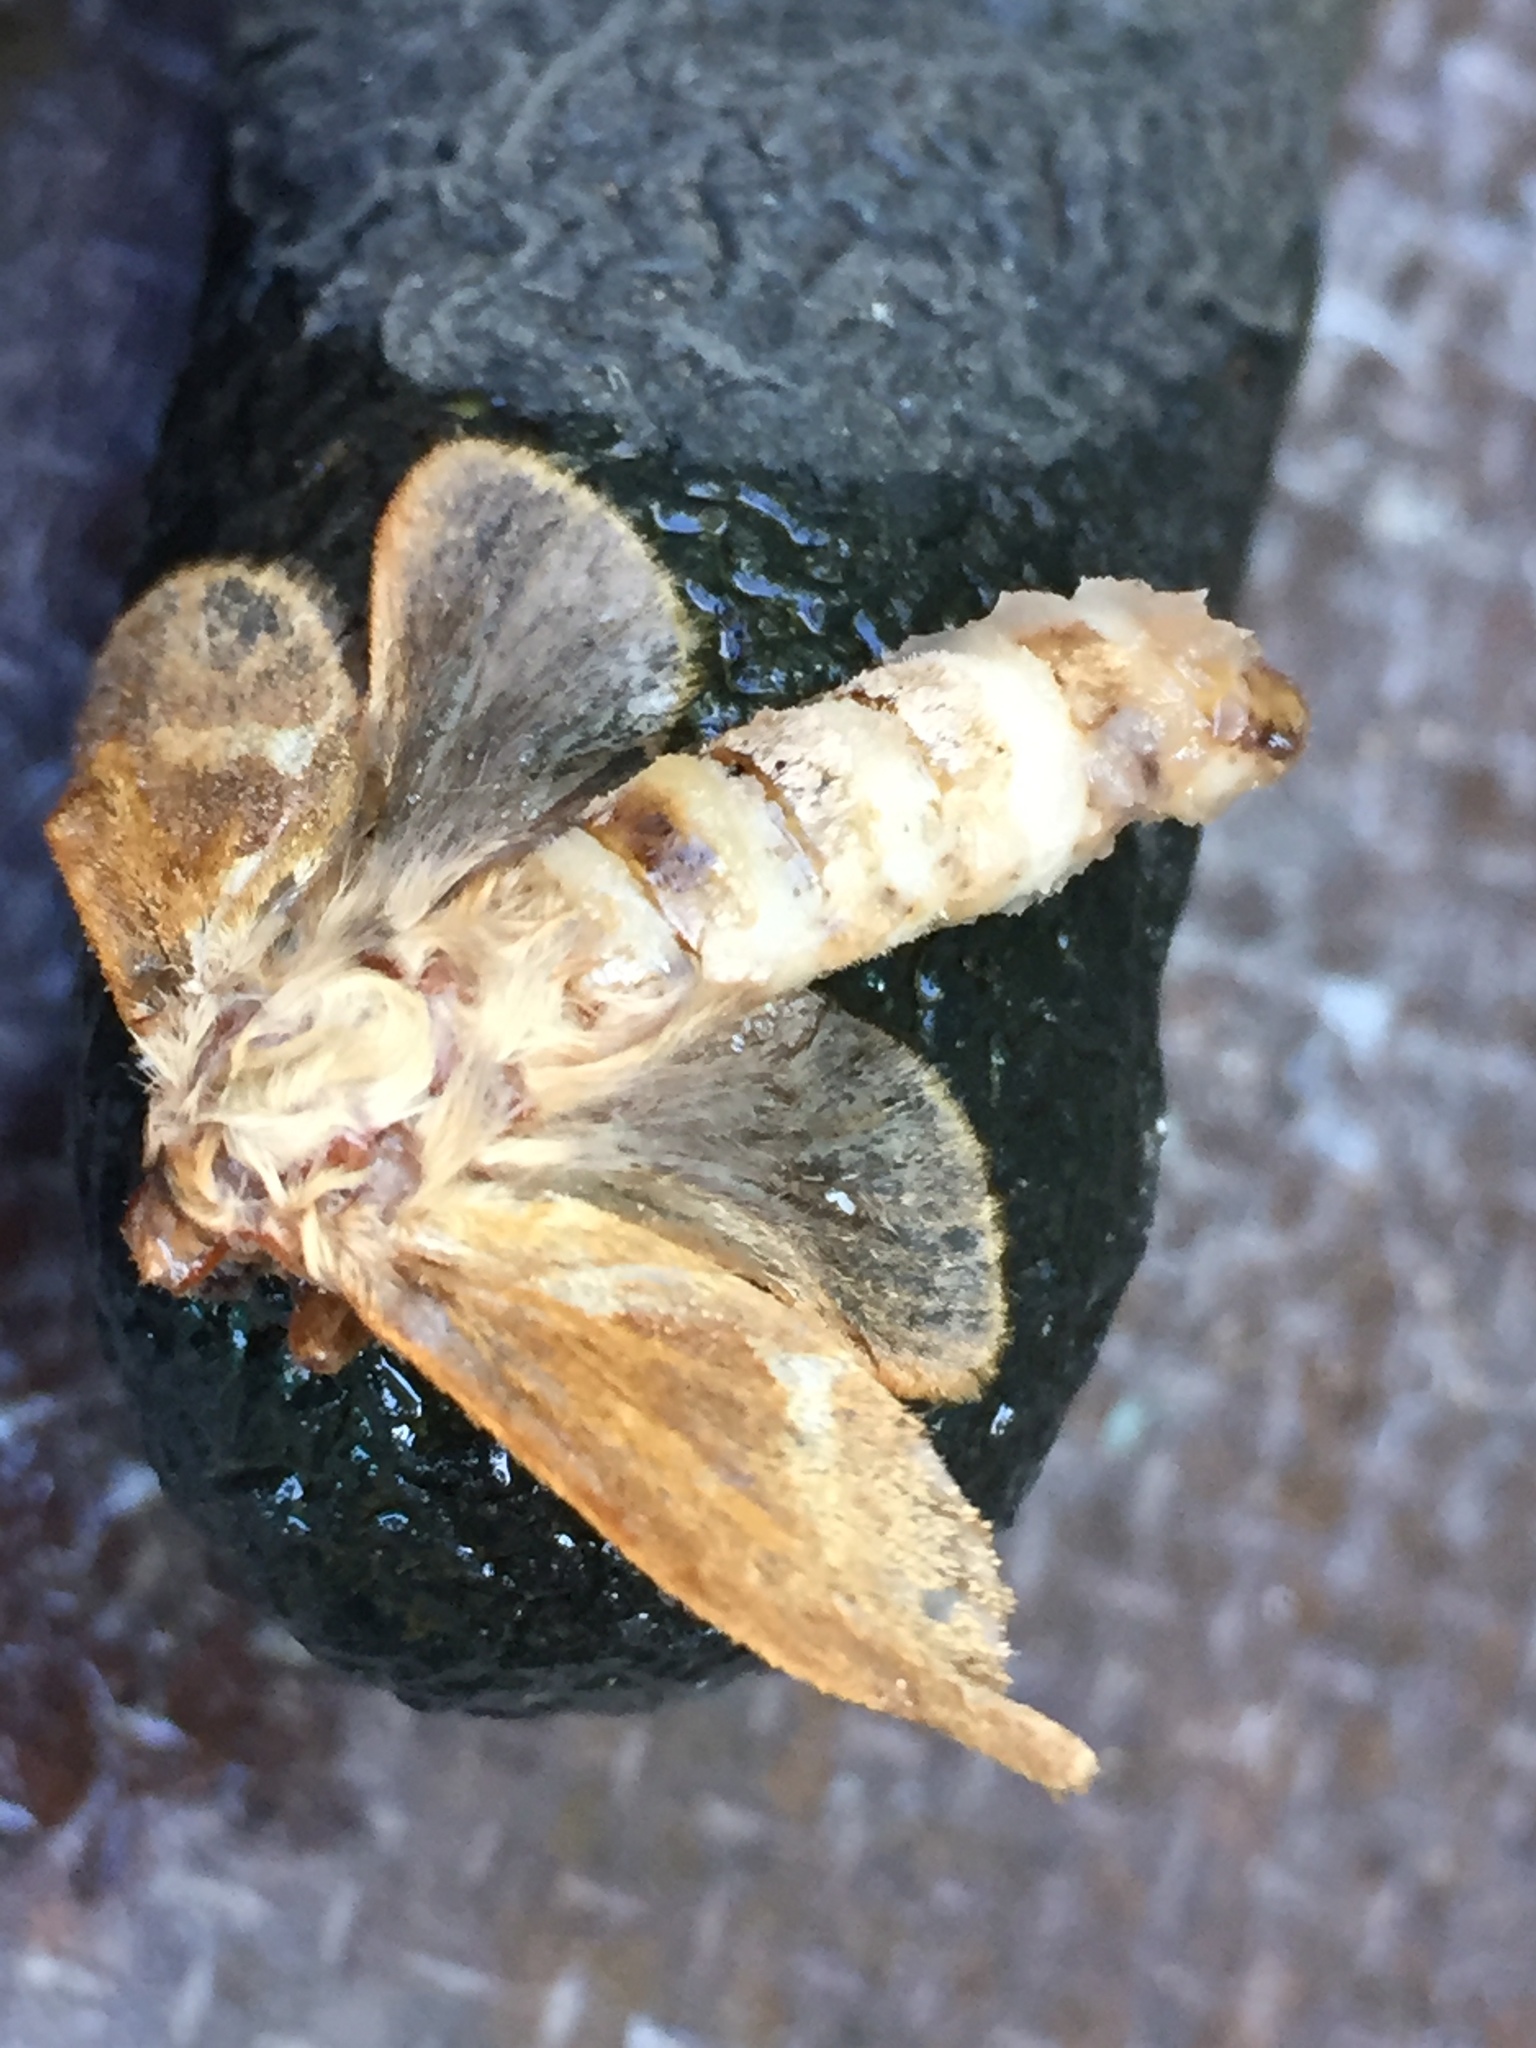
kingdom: Animalia
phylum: Arthropoda
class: Insecta
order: Lepidoptera
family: Hepialidae
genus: Korscheltellus
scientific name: Korscheltellus lupulina
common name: Common swift
